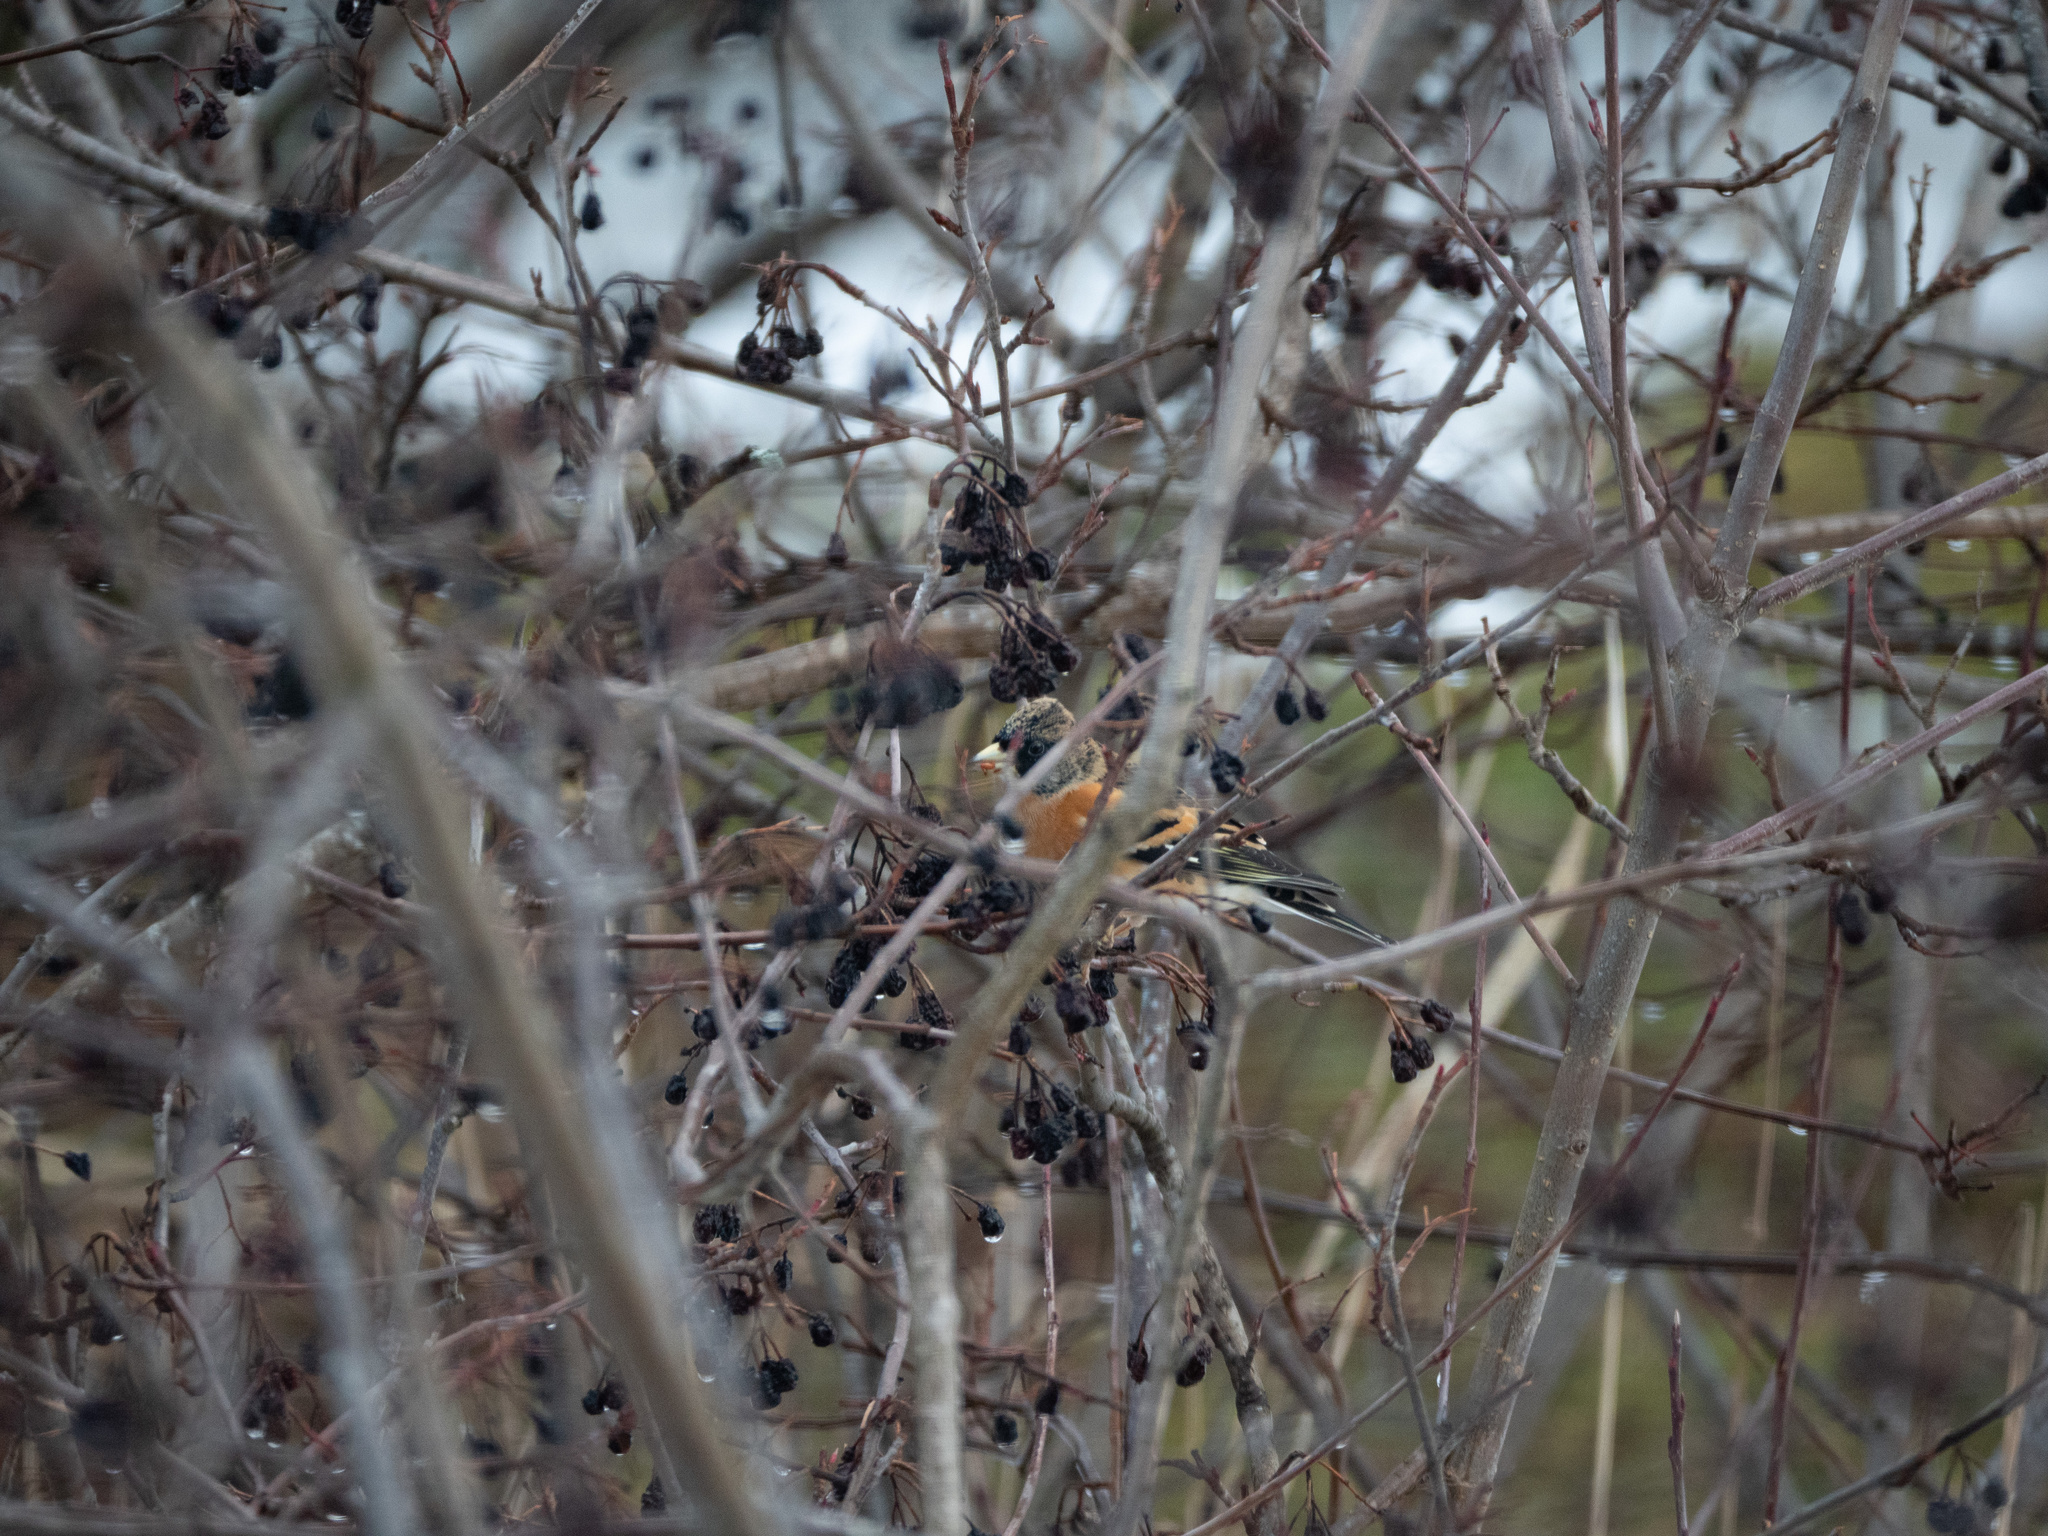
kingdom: Animalia
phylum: Chordata
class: Aves
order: Passeriformes
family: Fringillidae
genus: Fringilla
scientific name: Fringilla montifringilla
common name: Brambling
